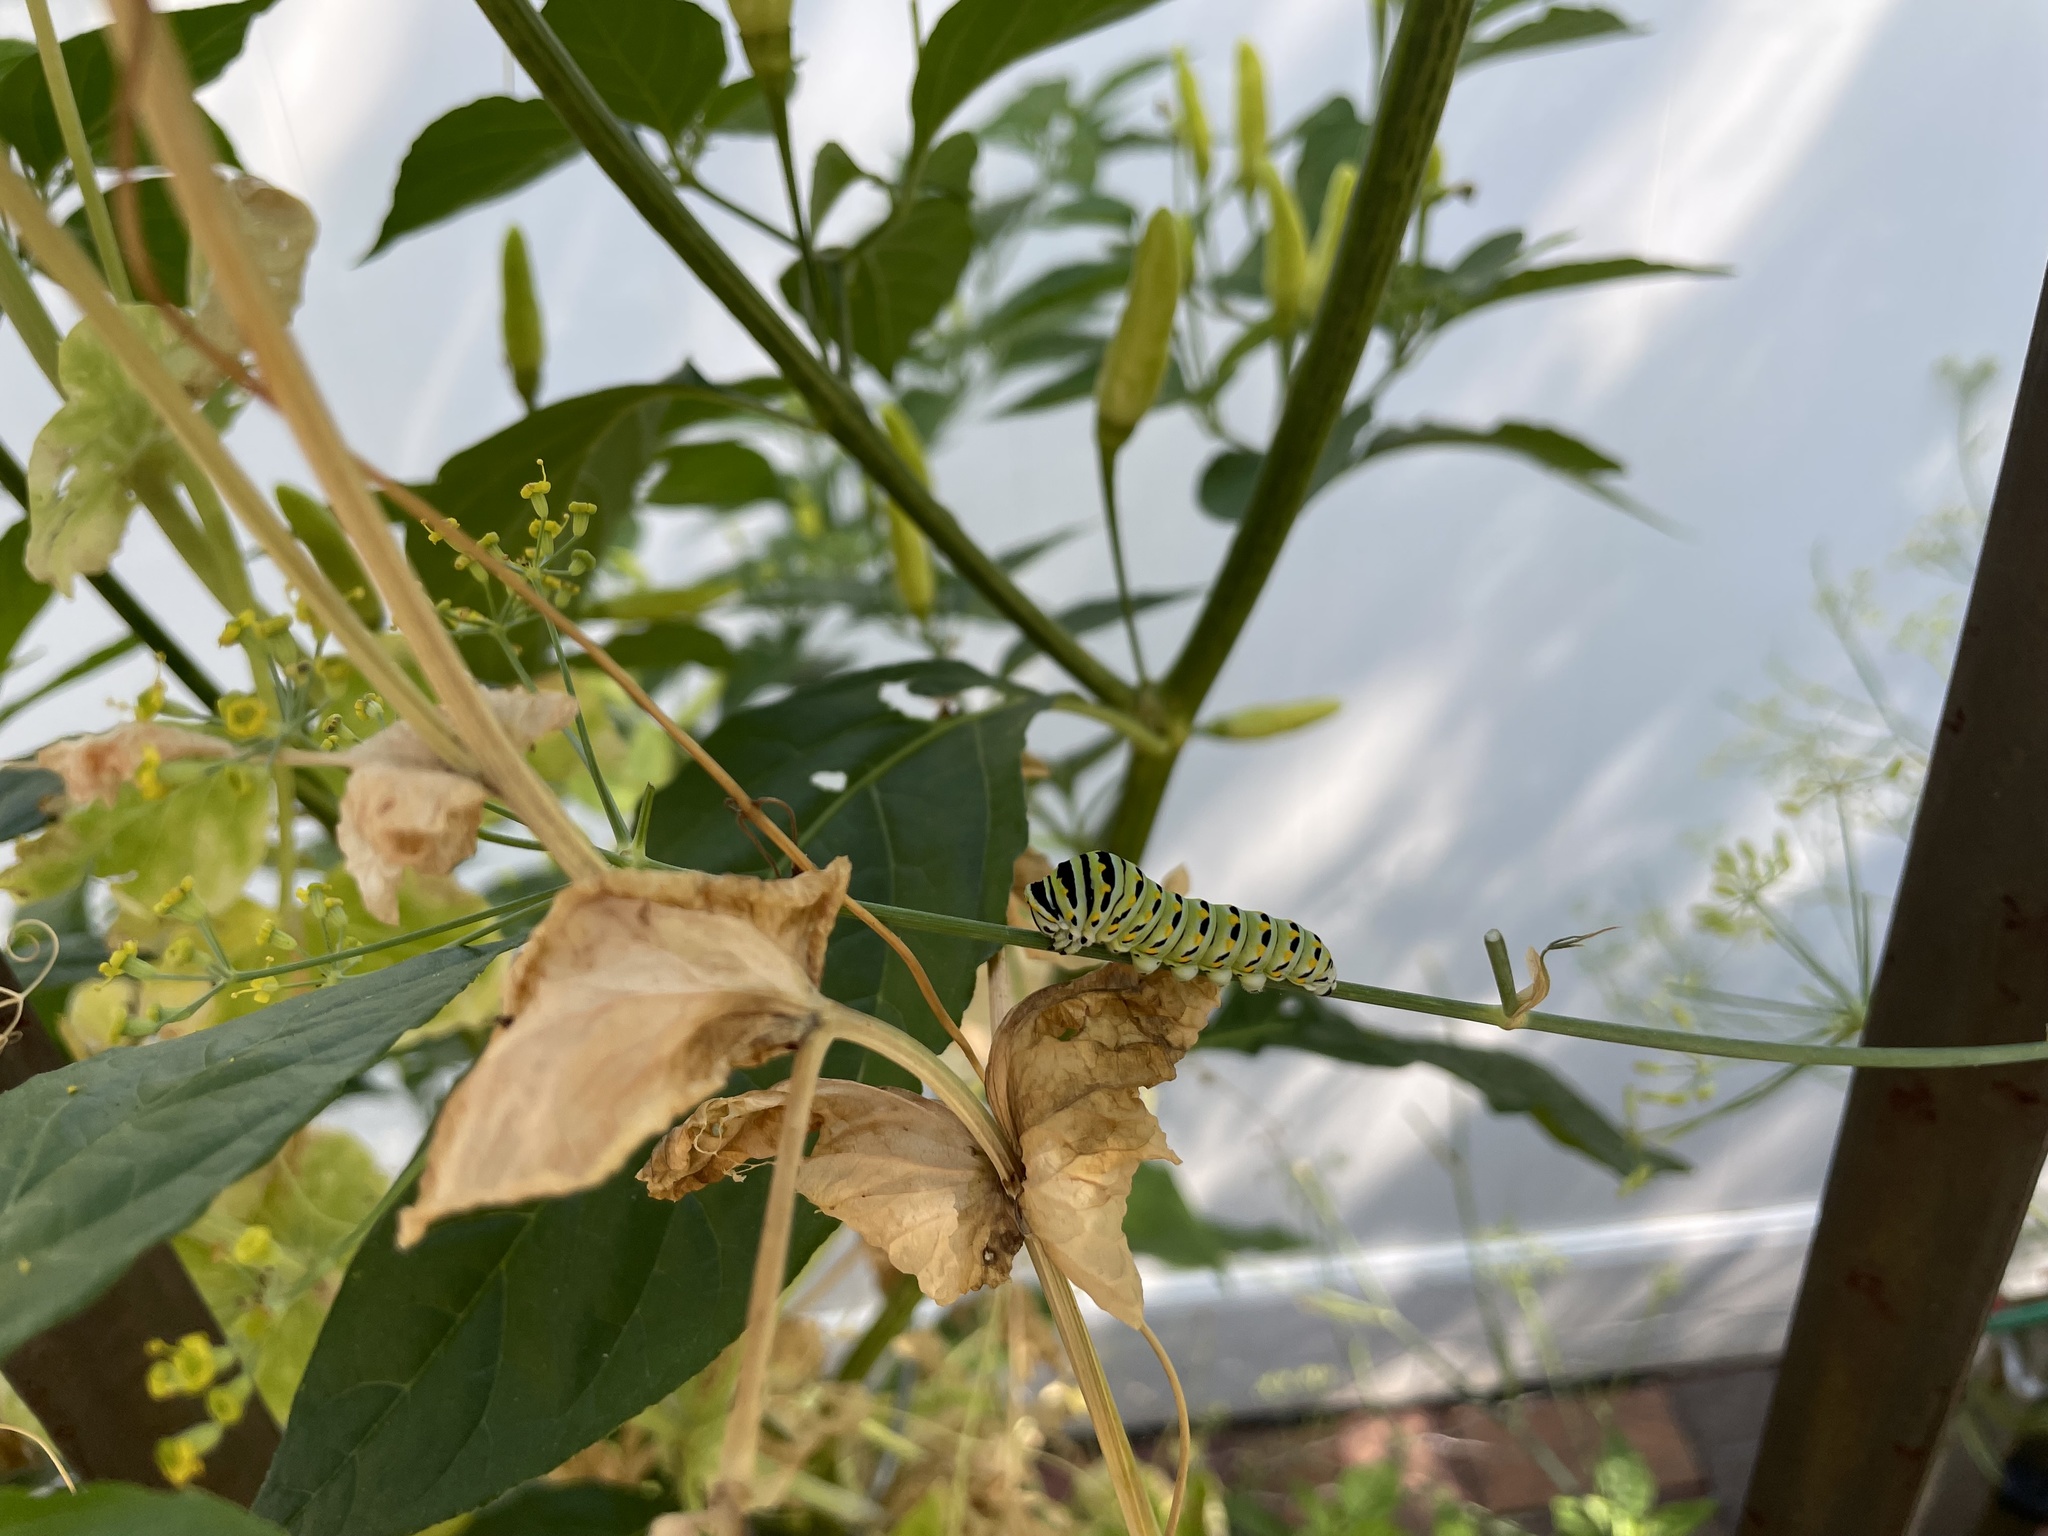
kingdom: Animalia
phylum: Arthropoda
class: Insecta
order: Lepidoptera
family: Papilionidae
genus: Papilio
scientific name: Papilio polyxenes
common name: Black swallowtail
